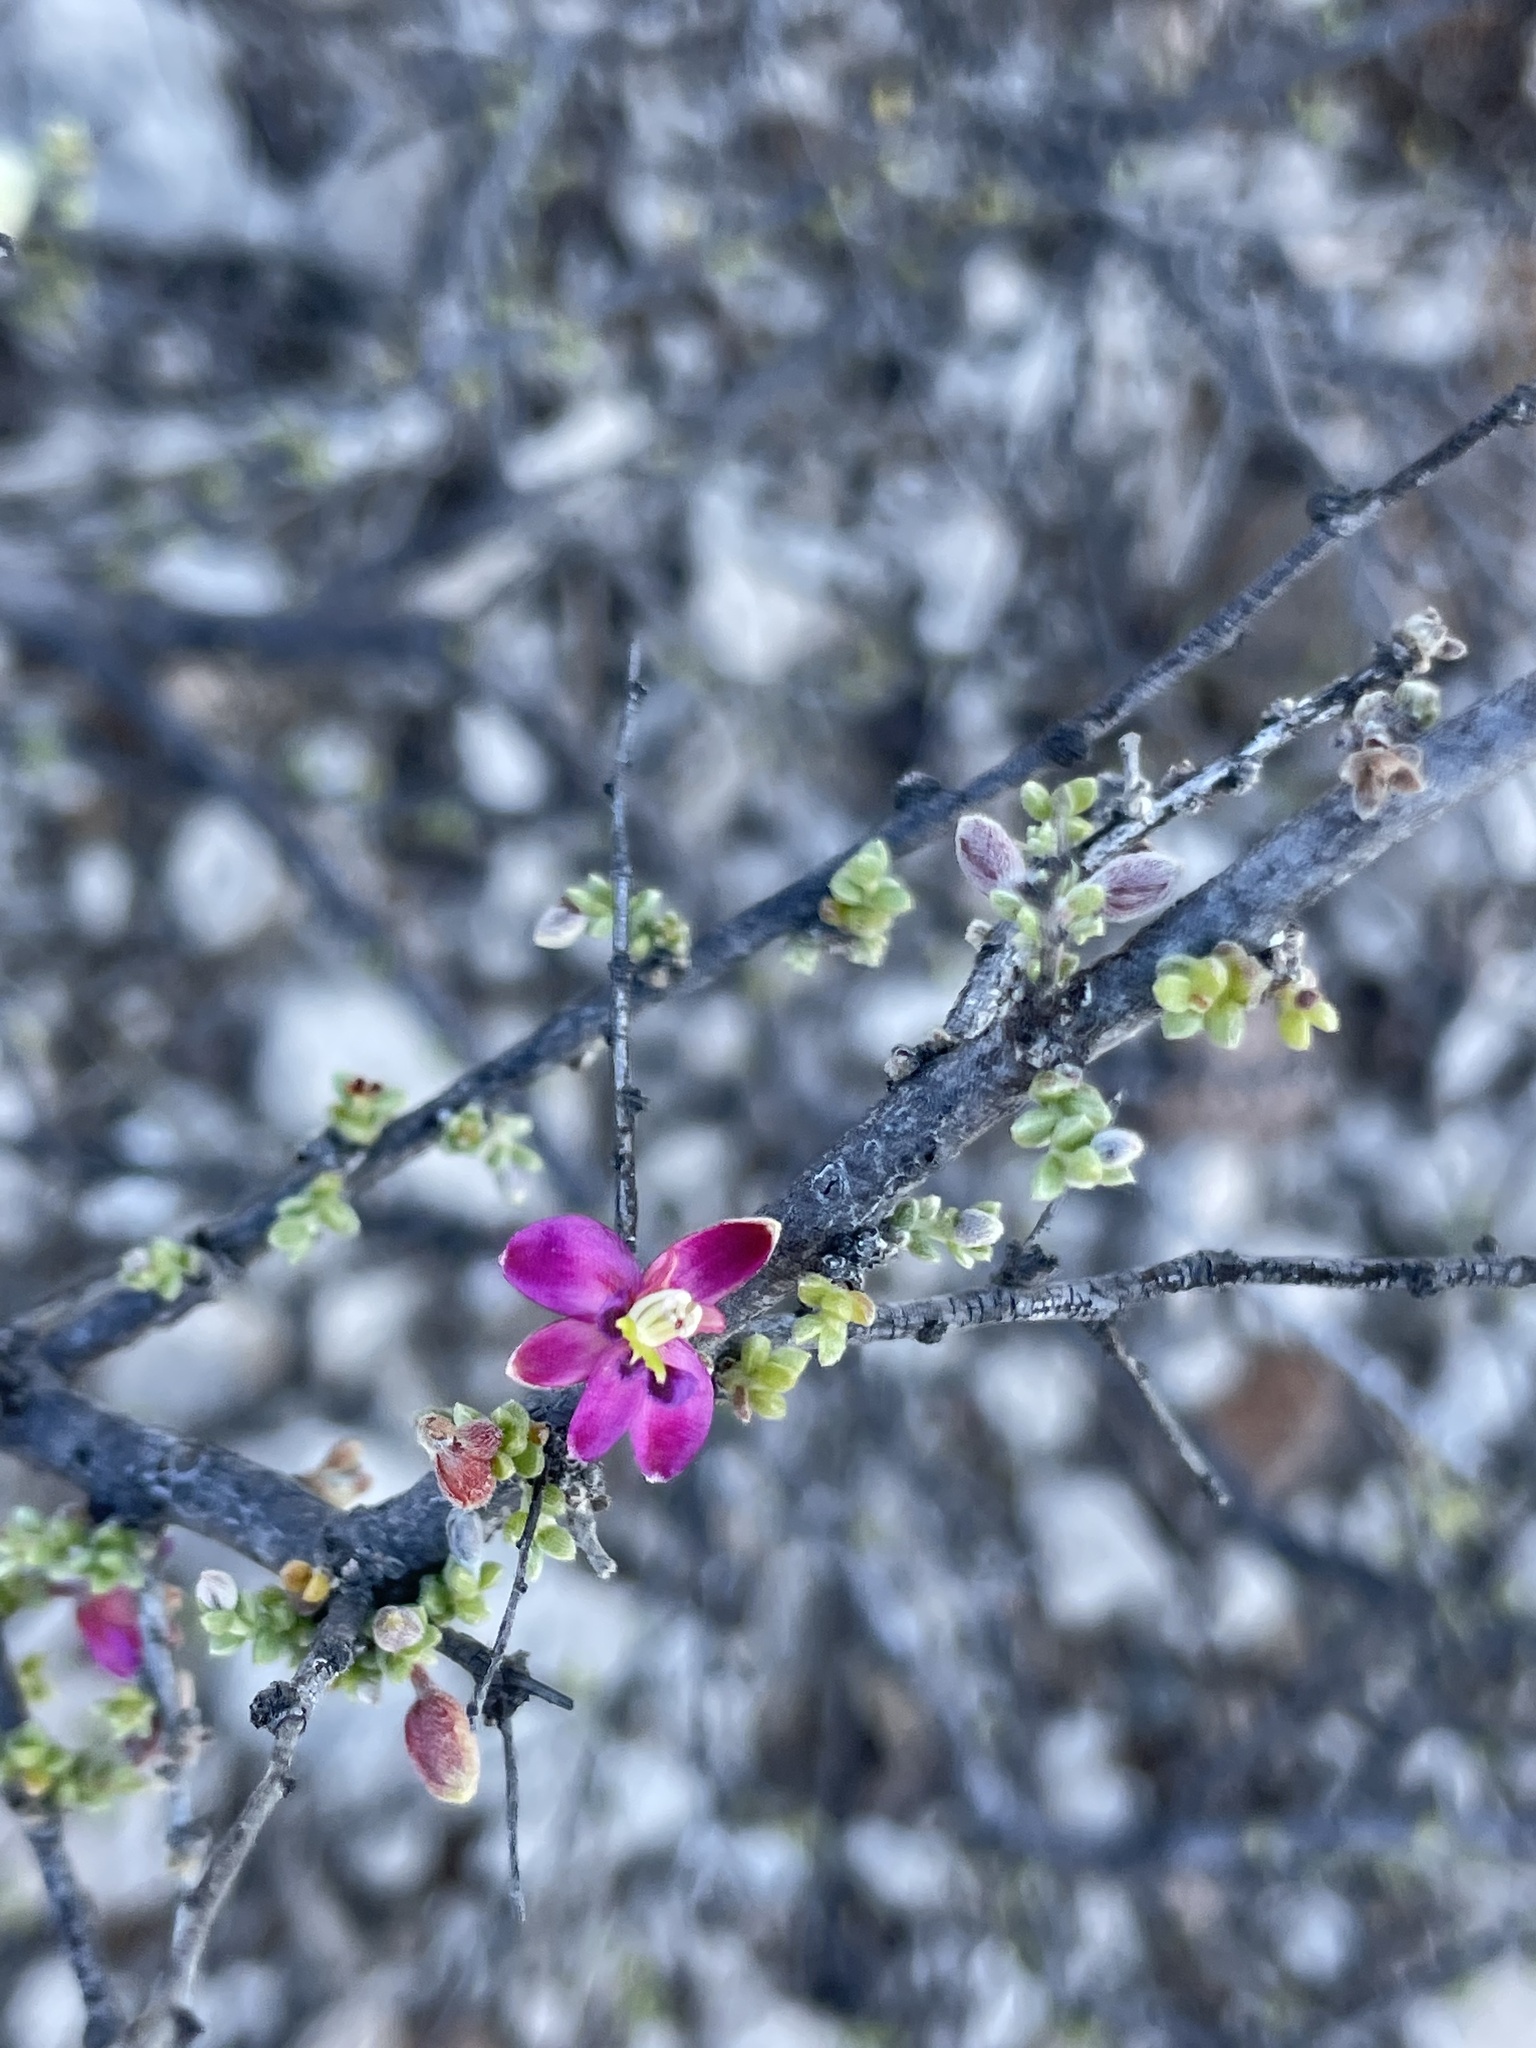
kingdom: Plantae
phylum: Tracheophyta
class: Magnoliopsida
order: Zygophyllales
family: Krameriaceae
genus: Krameria
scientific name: Krameria erecta
